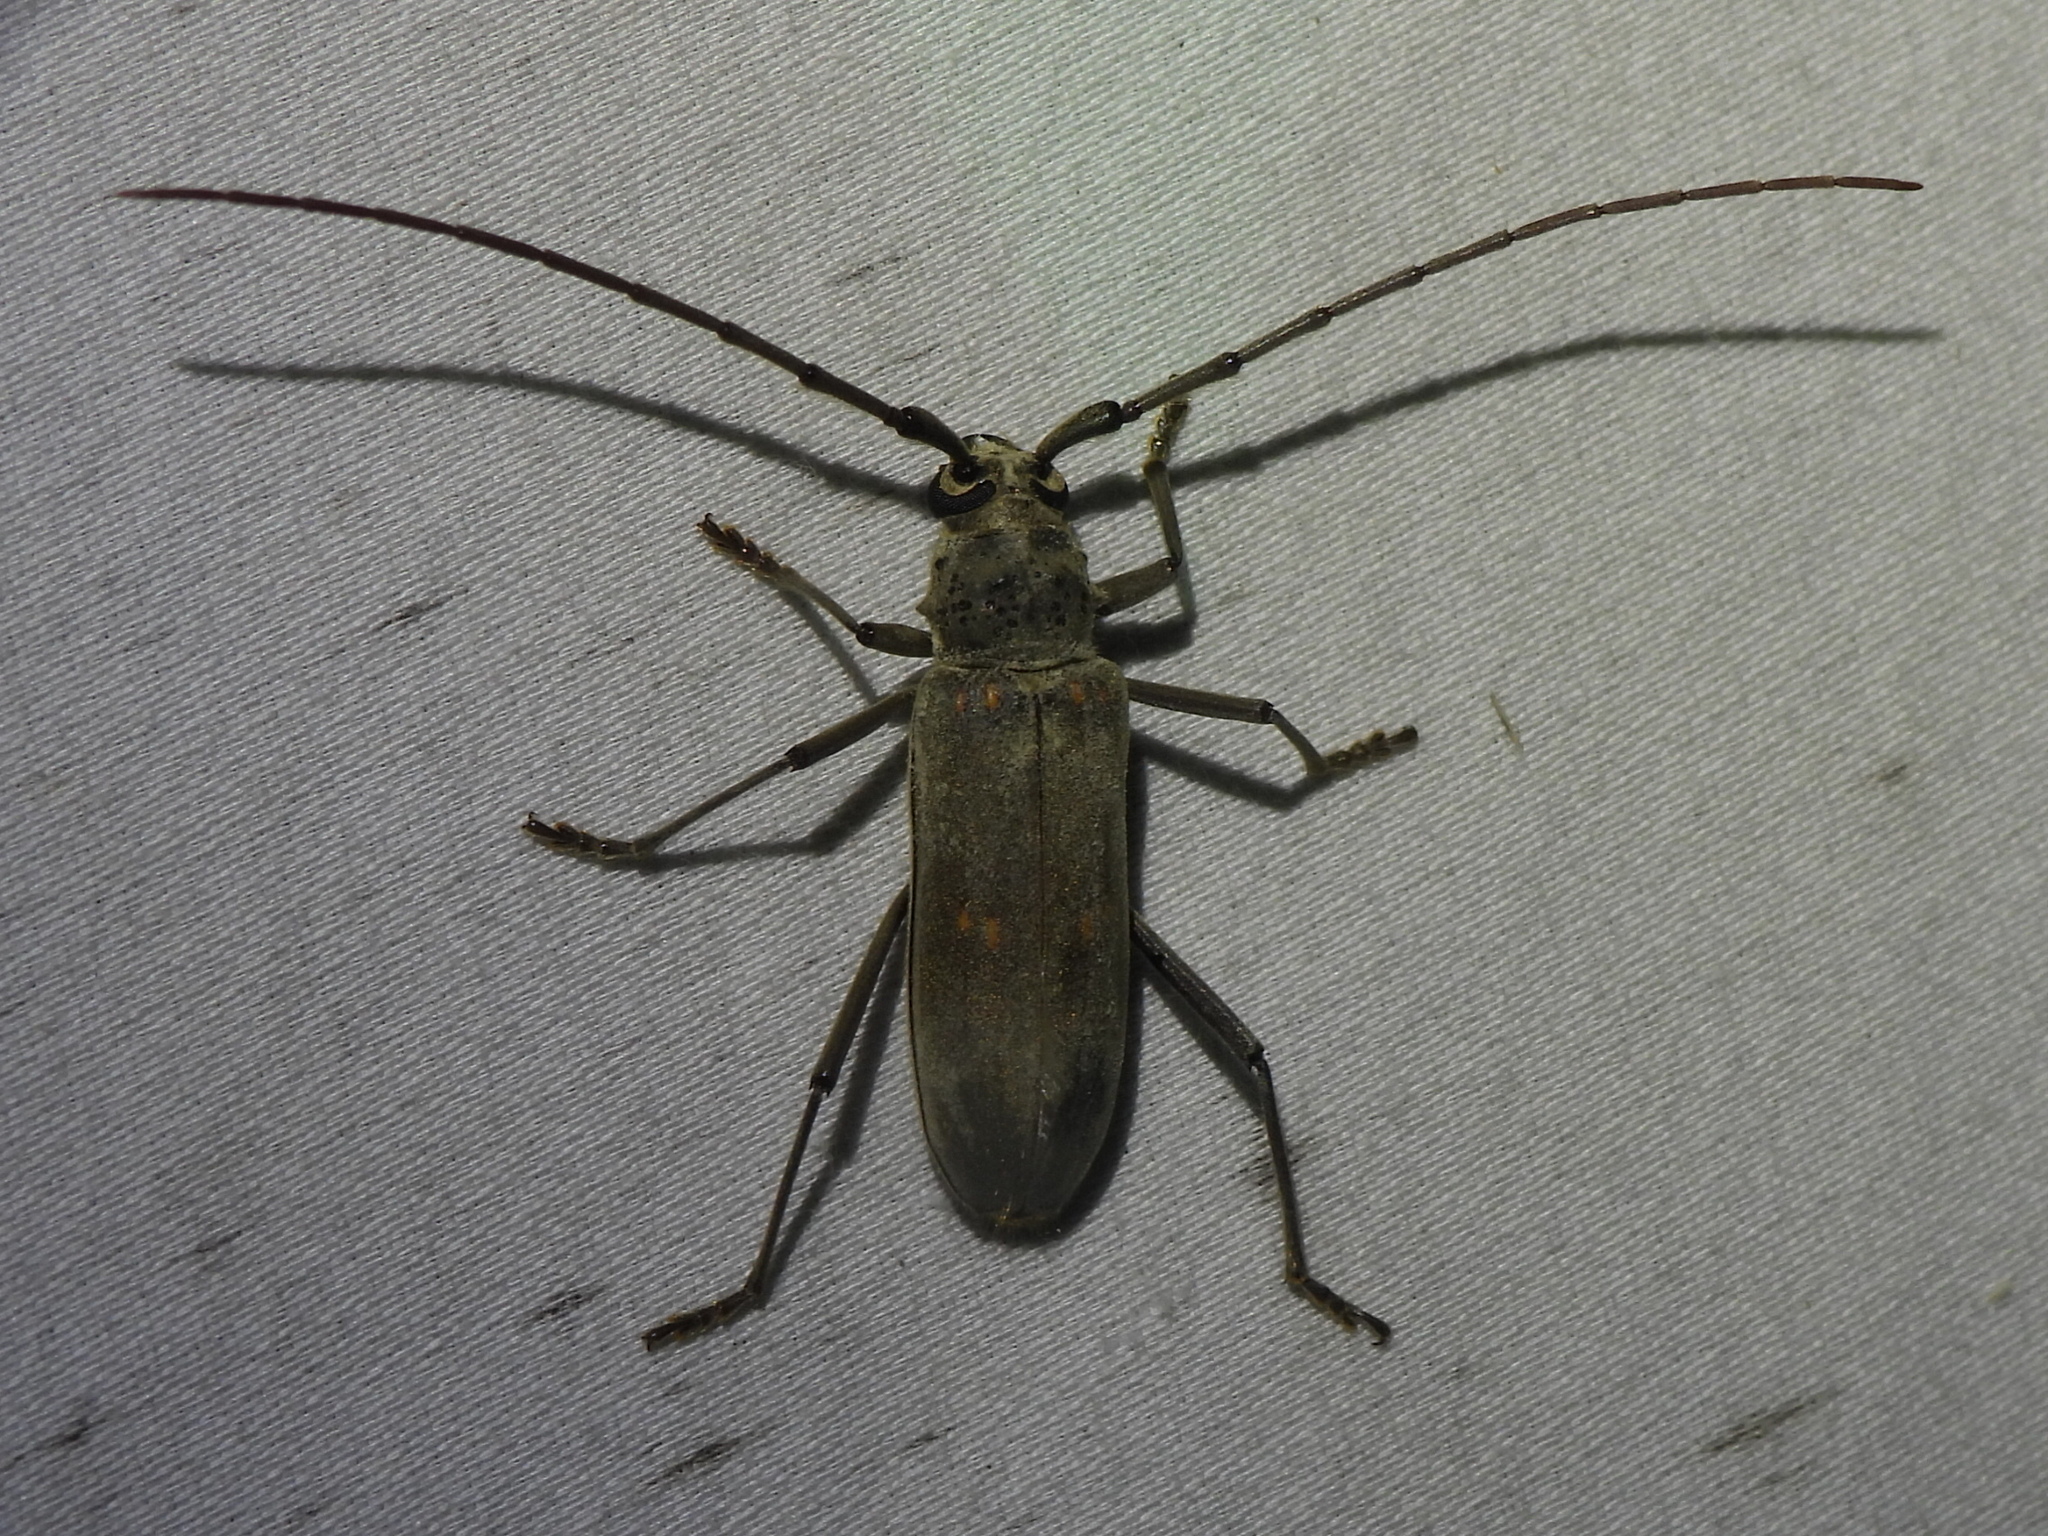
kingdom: Animalia
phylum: Arthropoda
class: Insecta
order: Coleoptera
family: Cerambycidae
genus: Susuacanga
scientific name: Susuacanga stigmatica
